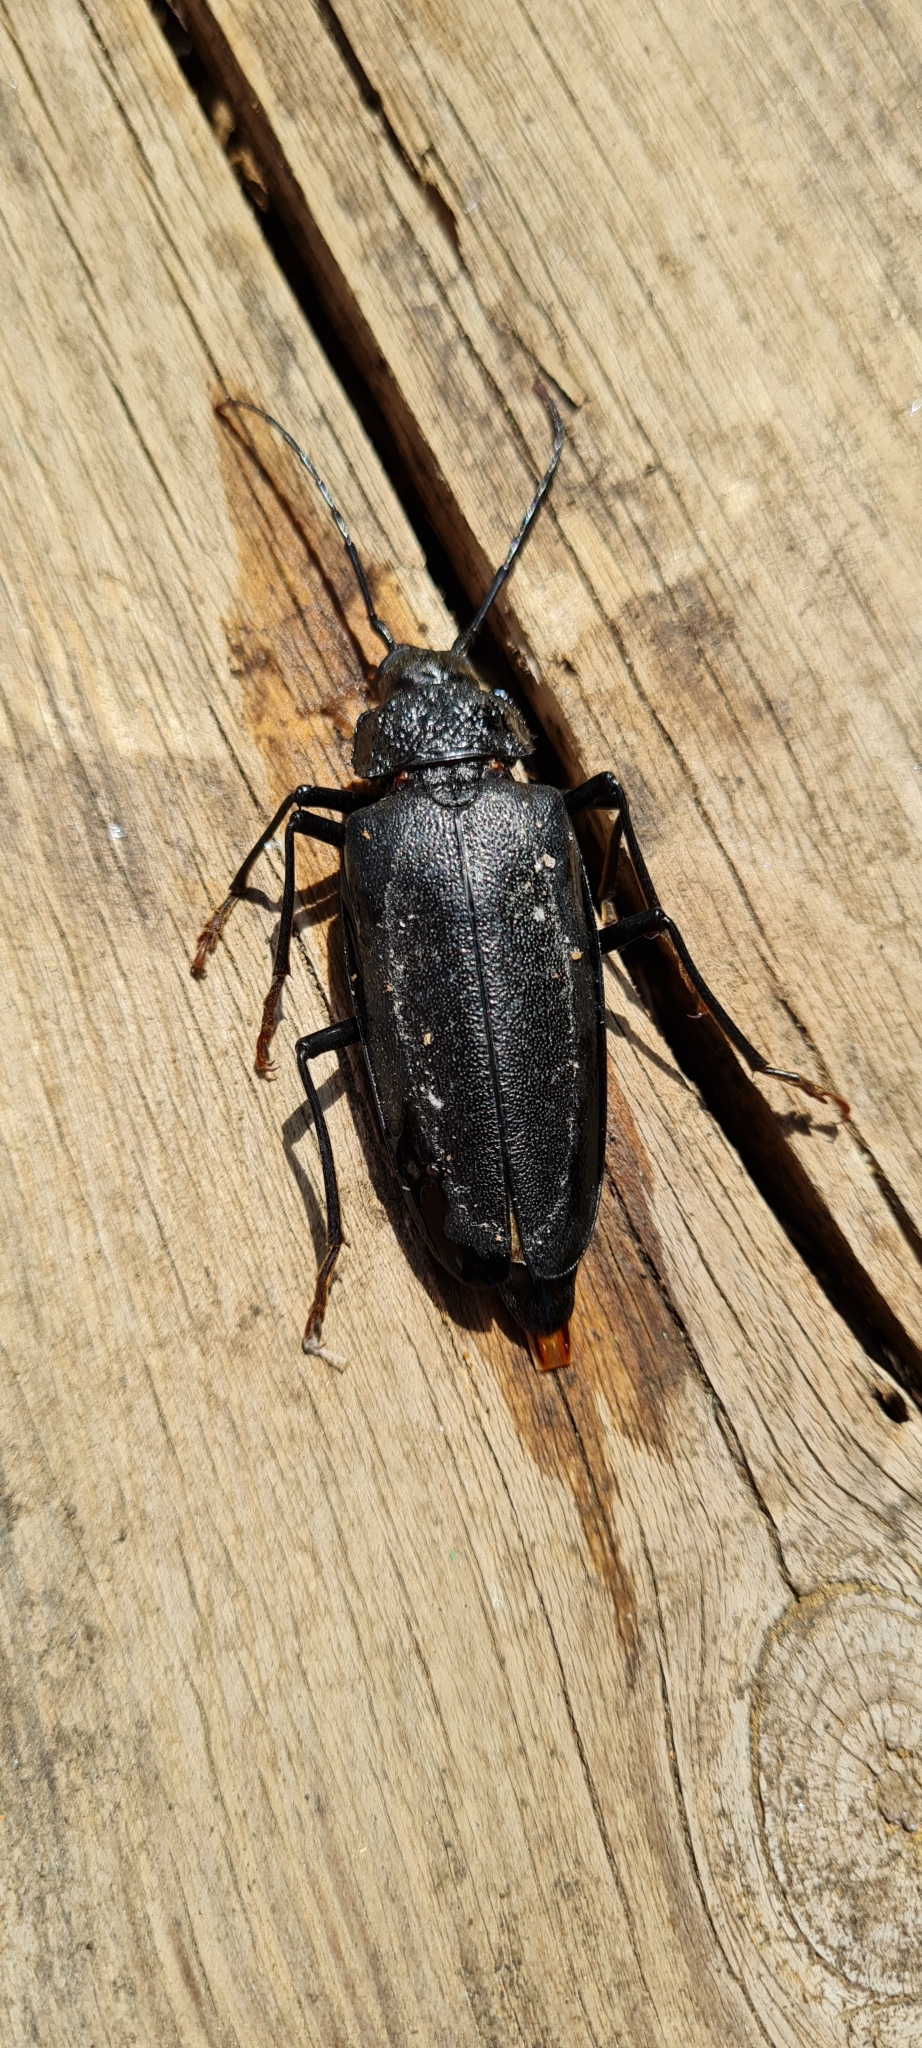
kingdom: Animalia
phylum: Arthropoda
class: Insecta
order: Coleoptera
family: Cerambycidae
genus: Ergates
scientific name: Ergates faber
